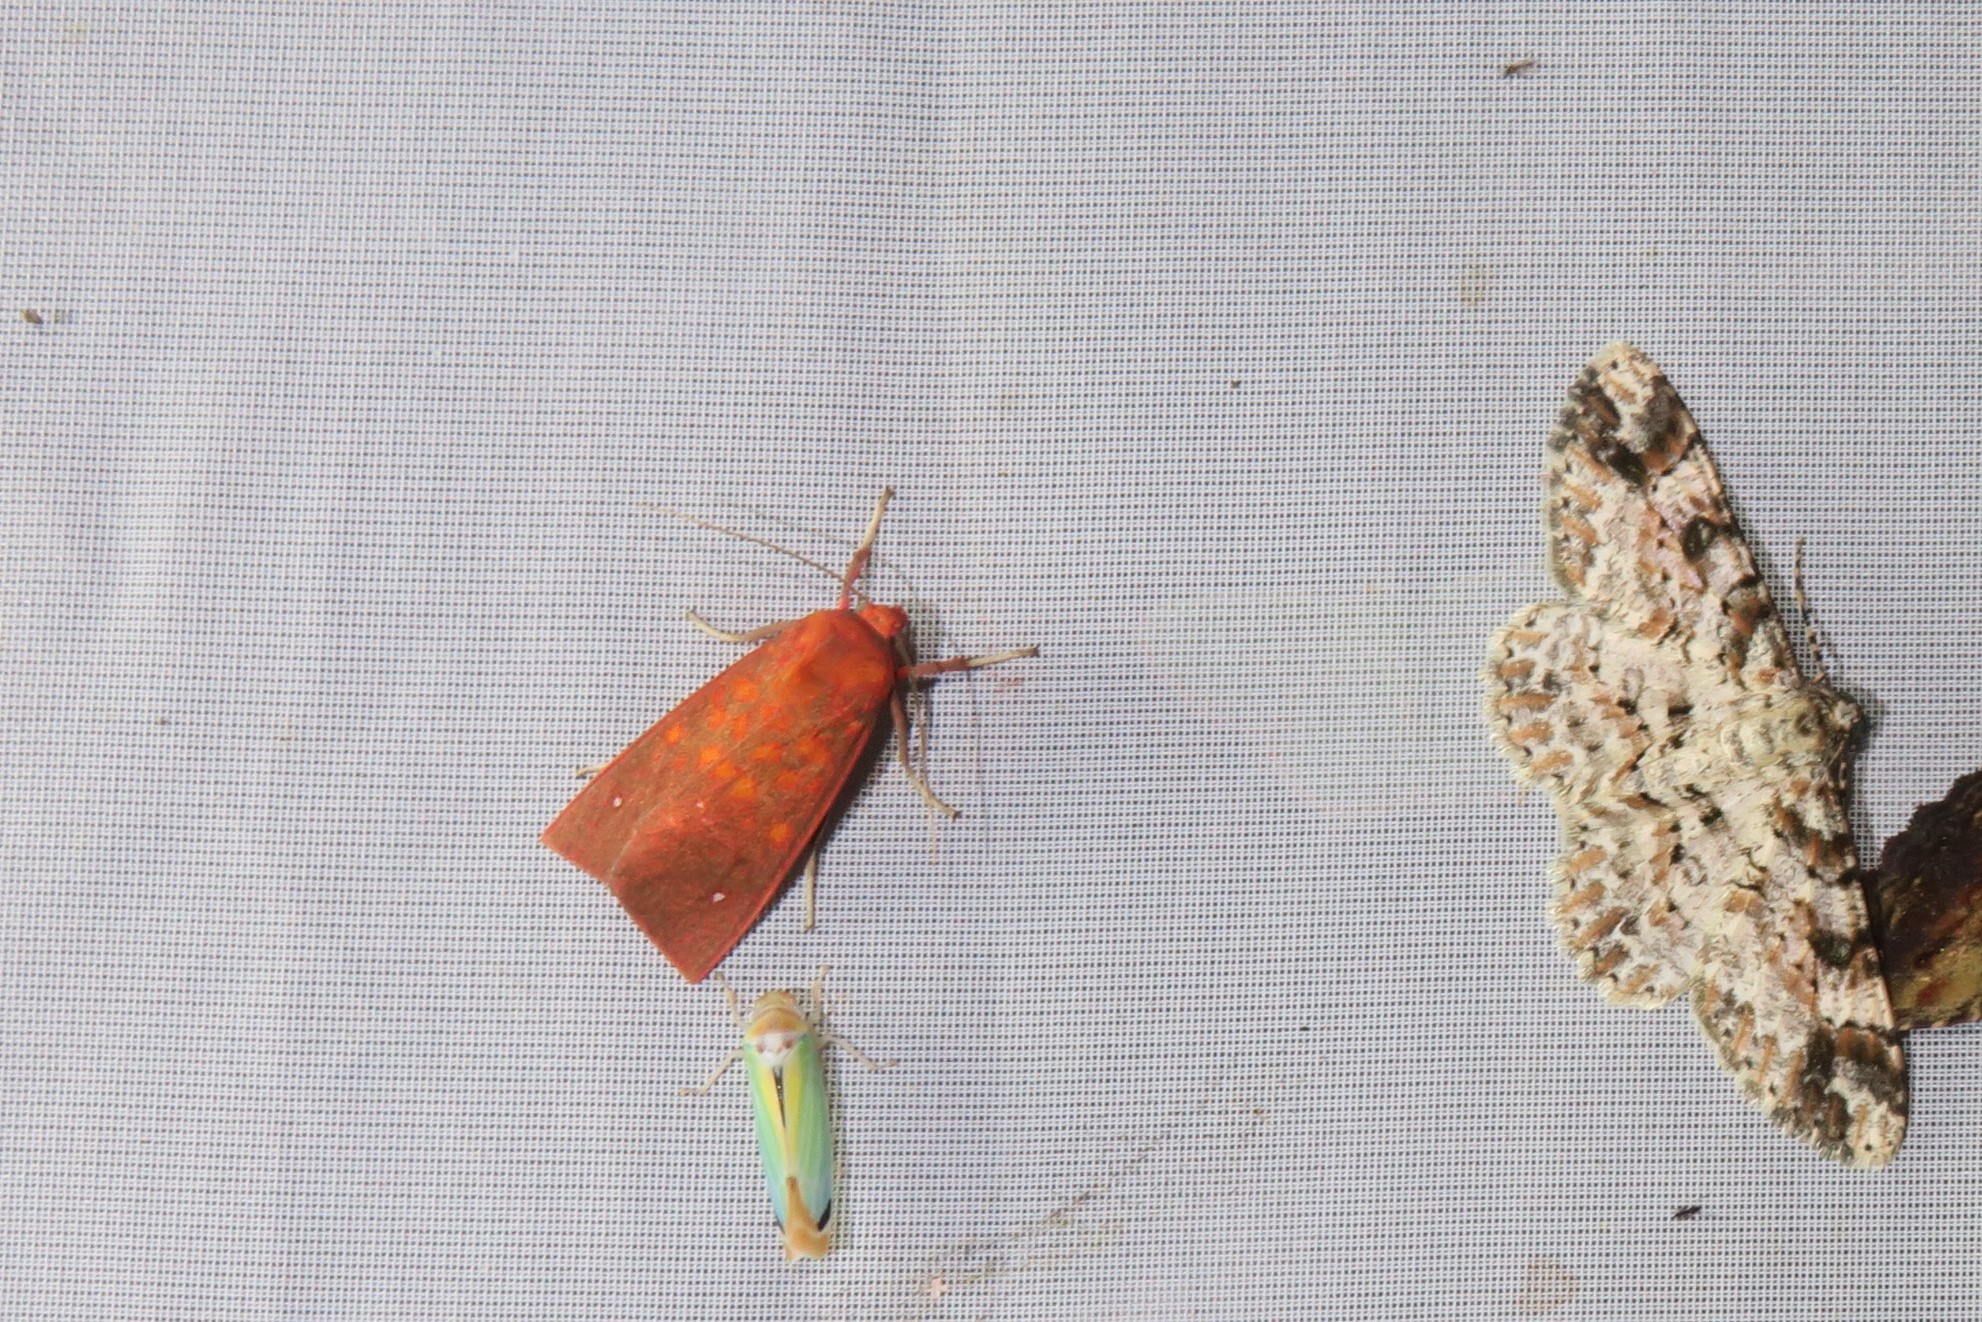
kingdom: Animalia
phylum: Arthropoda
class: Insecta
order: Lepidoptera
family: Erebidae
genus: Melese
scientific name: Melese intensa
